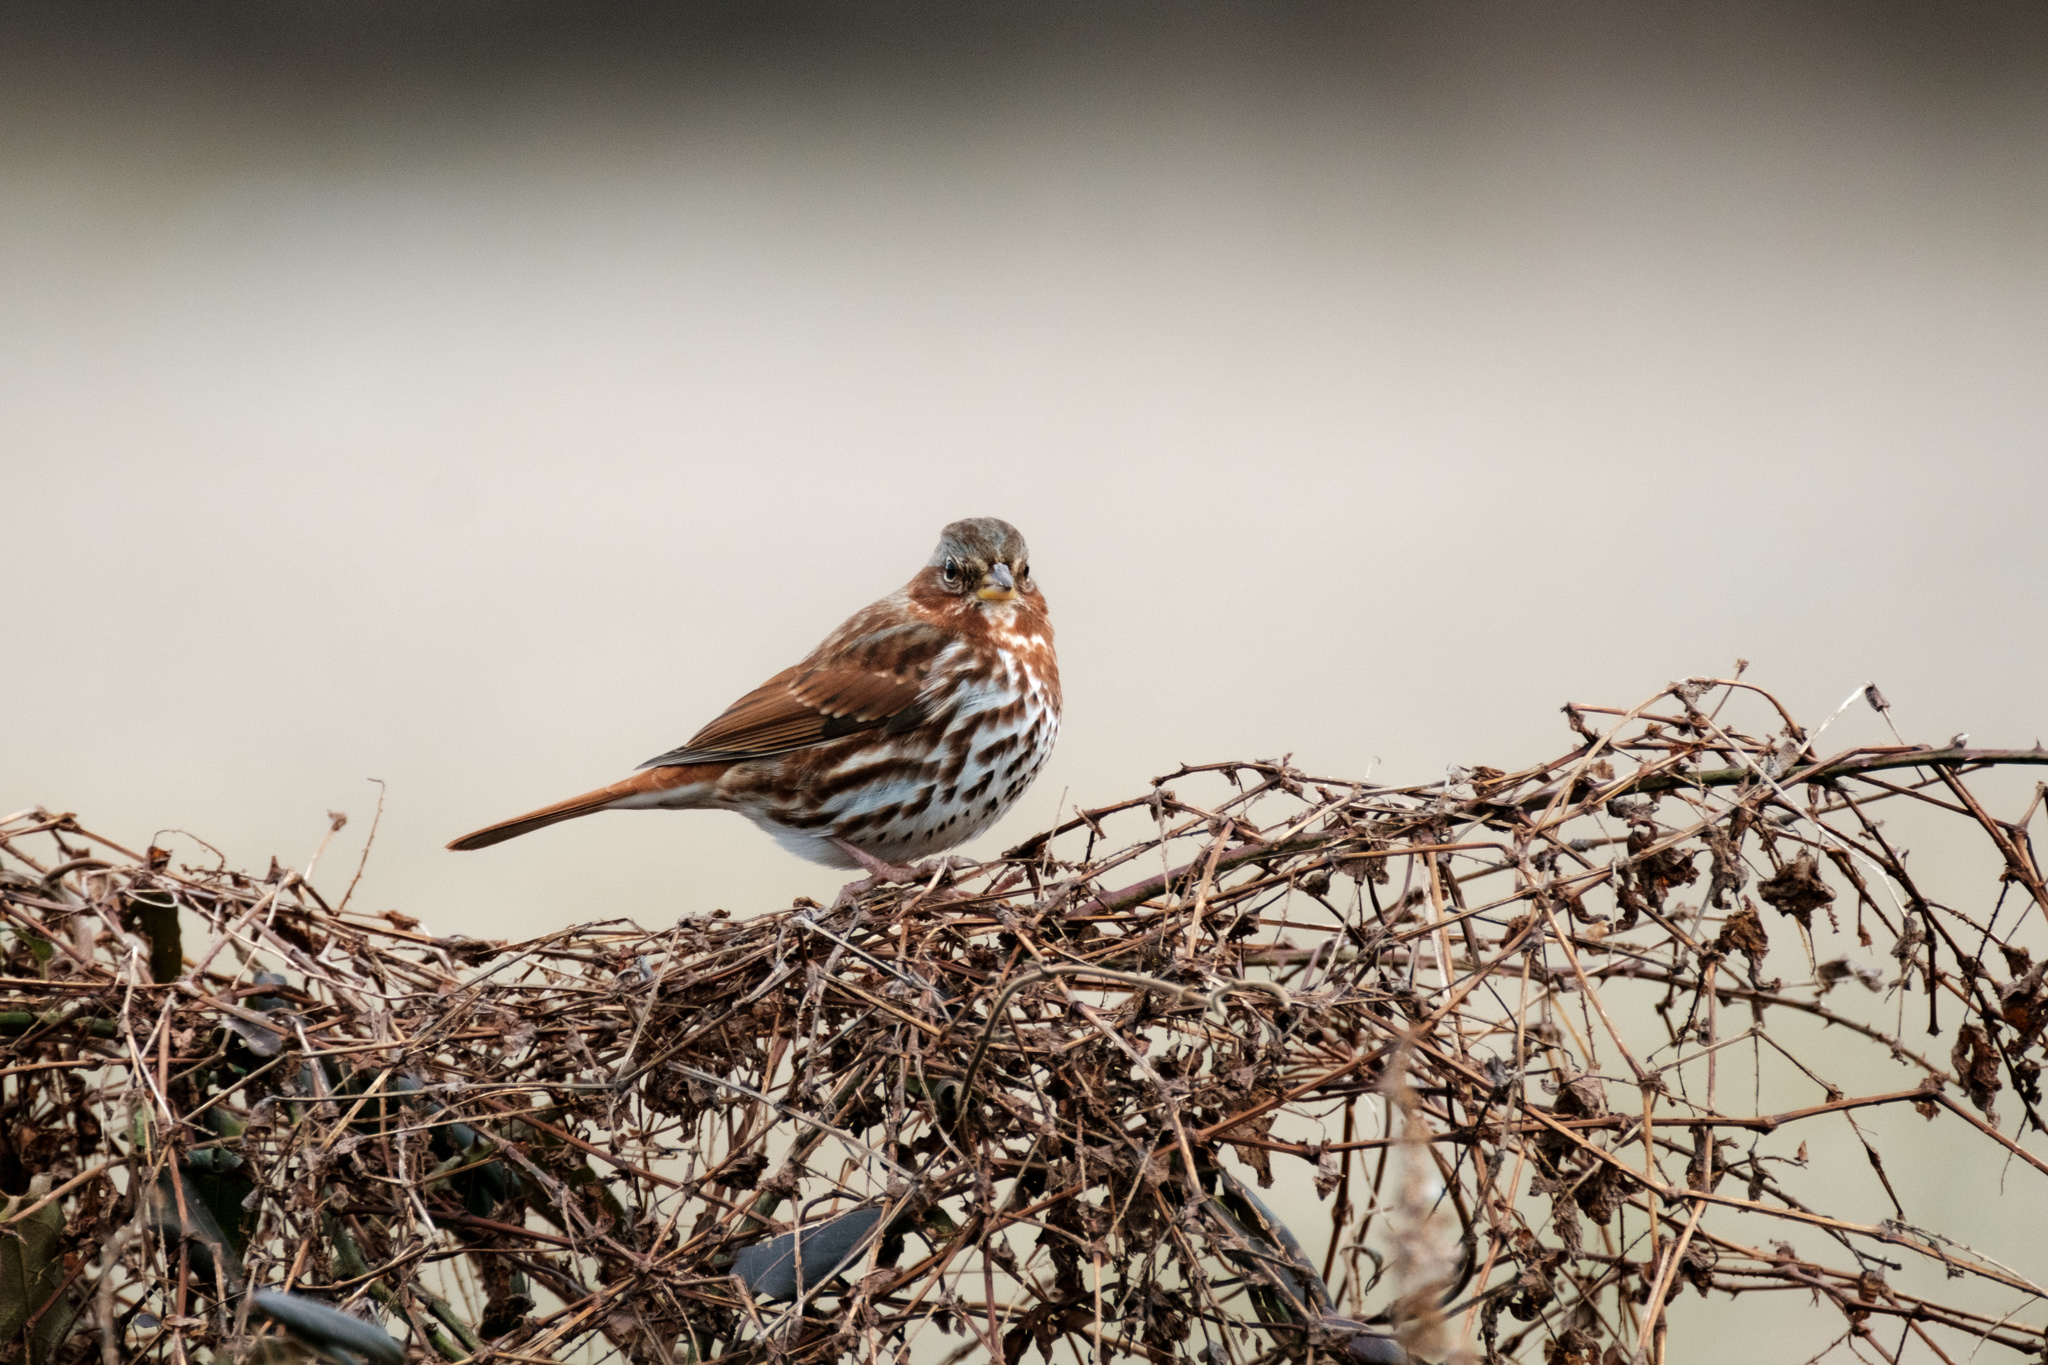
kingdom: Animalia
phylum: Chordata
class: Aves
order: Passeriformes
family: Passerellidae
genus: Passerella
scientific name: Passerella iliaca
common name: Fox sparrow
